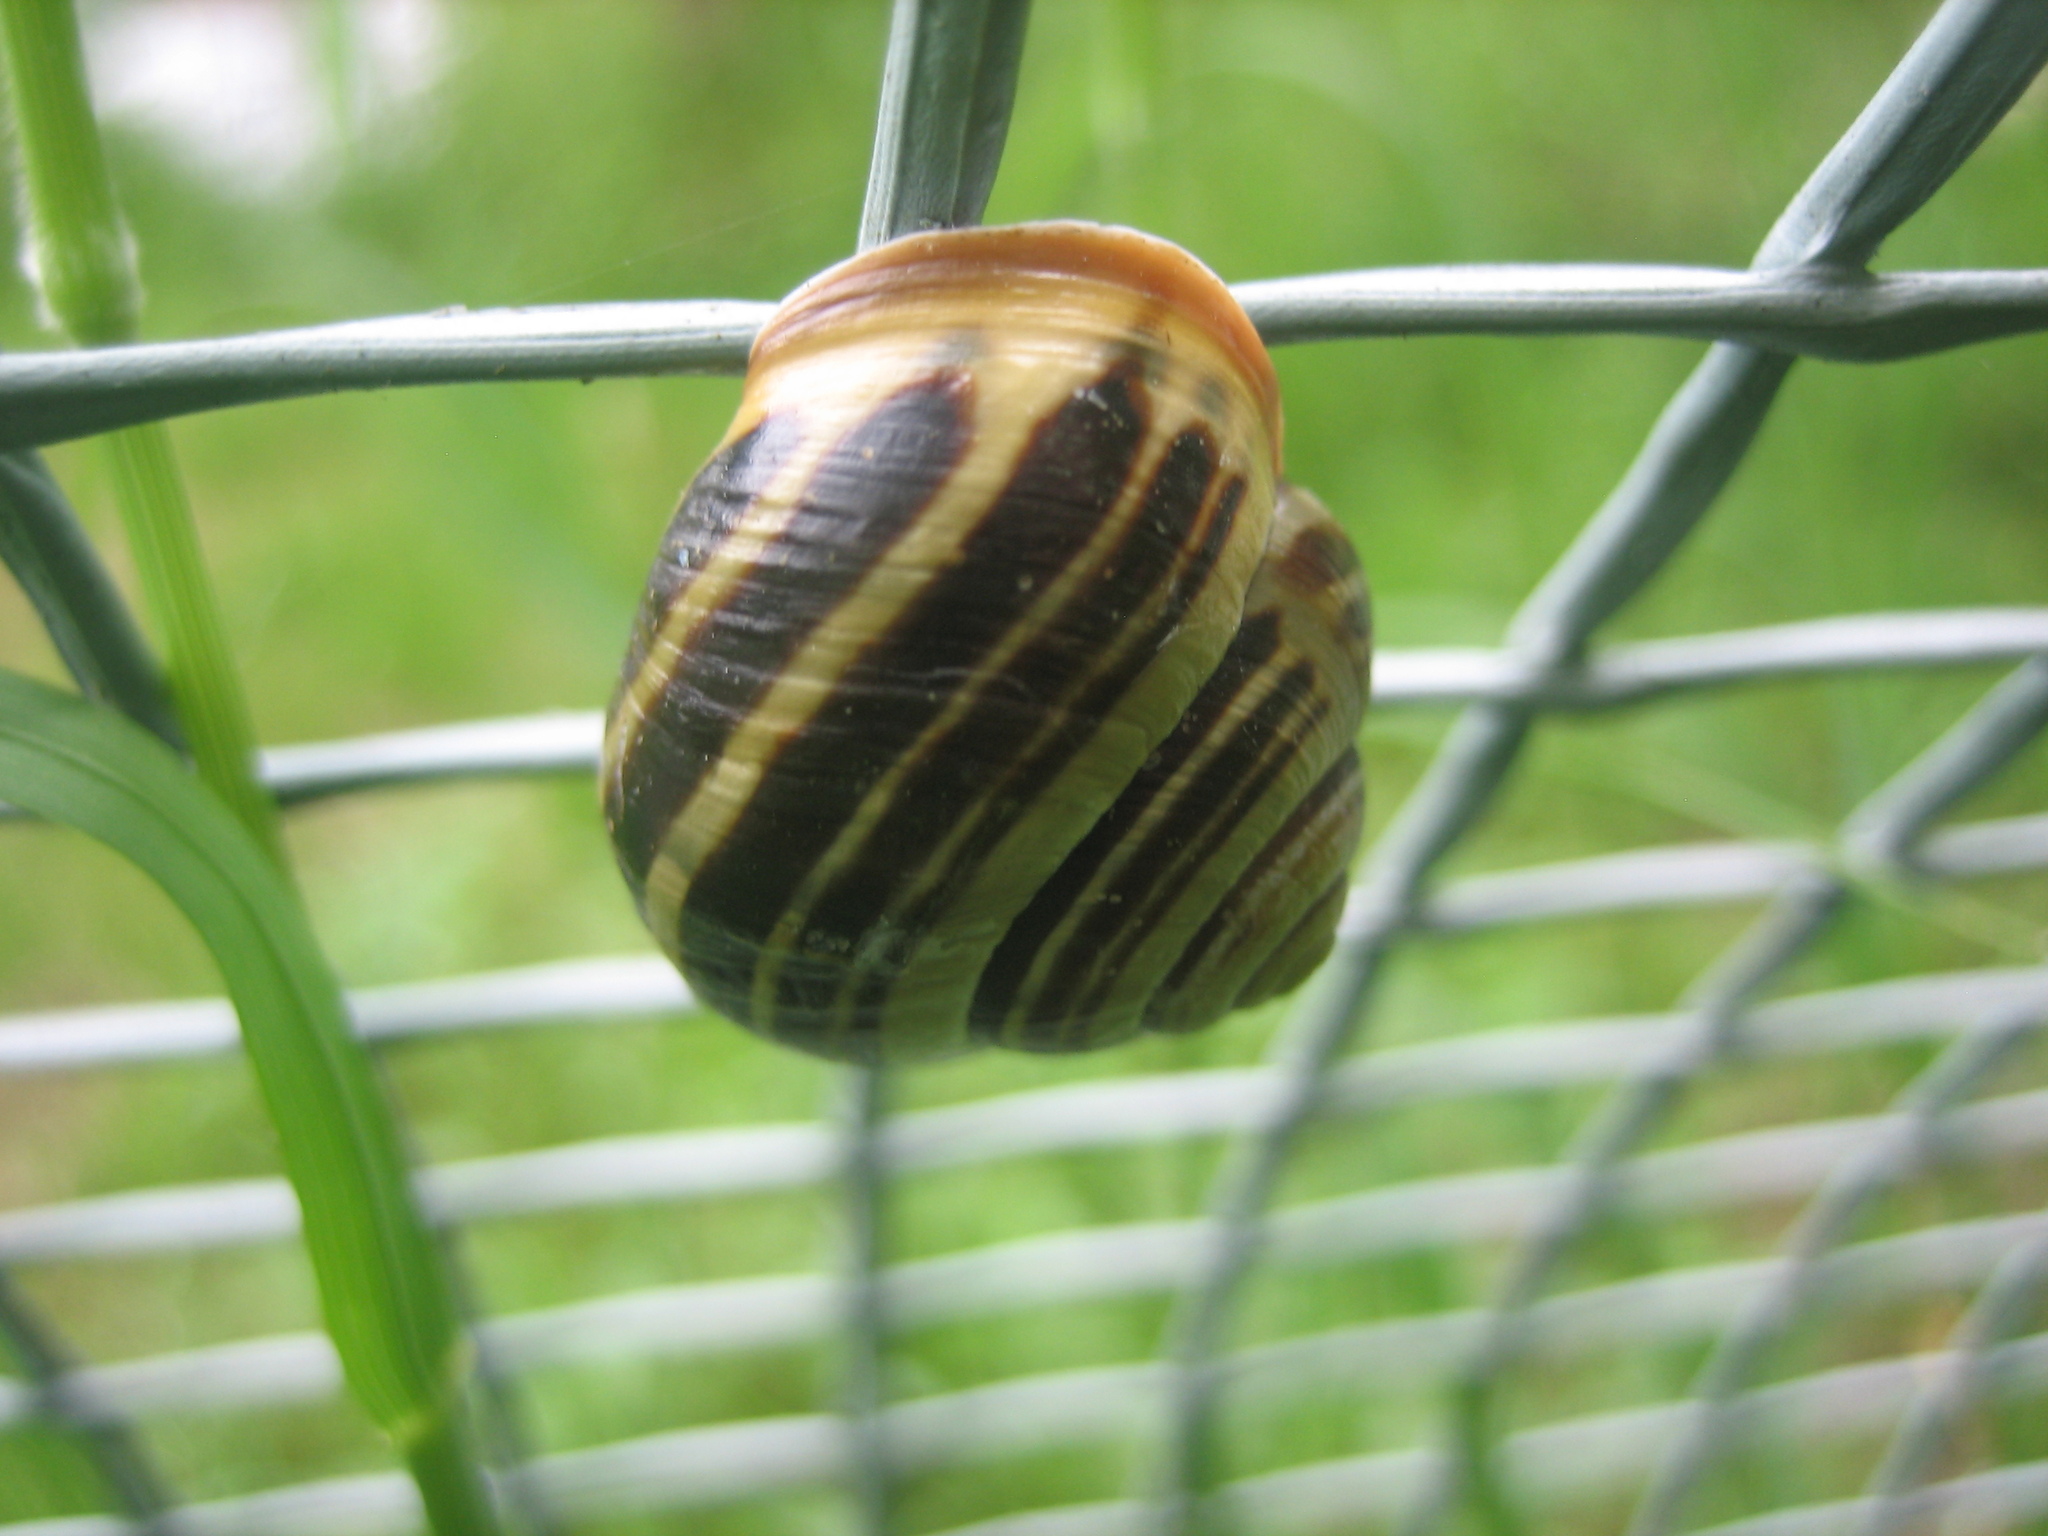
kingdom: Animalia
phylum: Mollusca
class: Gastropoda
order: Stylommatophora
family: Helicidae
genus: Cepaea
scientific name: Cepaea nemoralis
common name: Grovesnail
